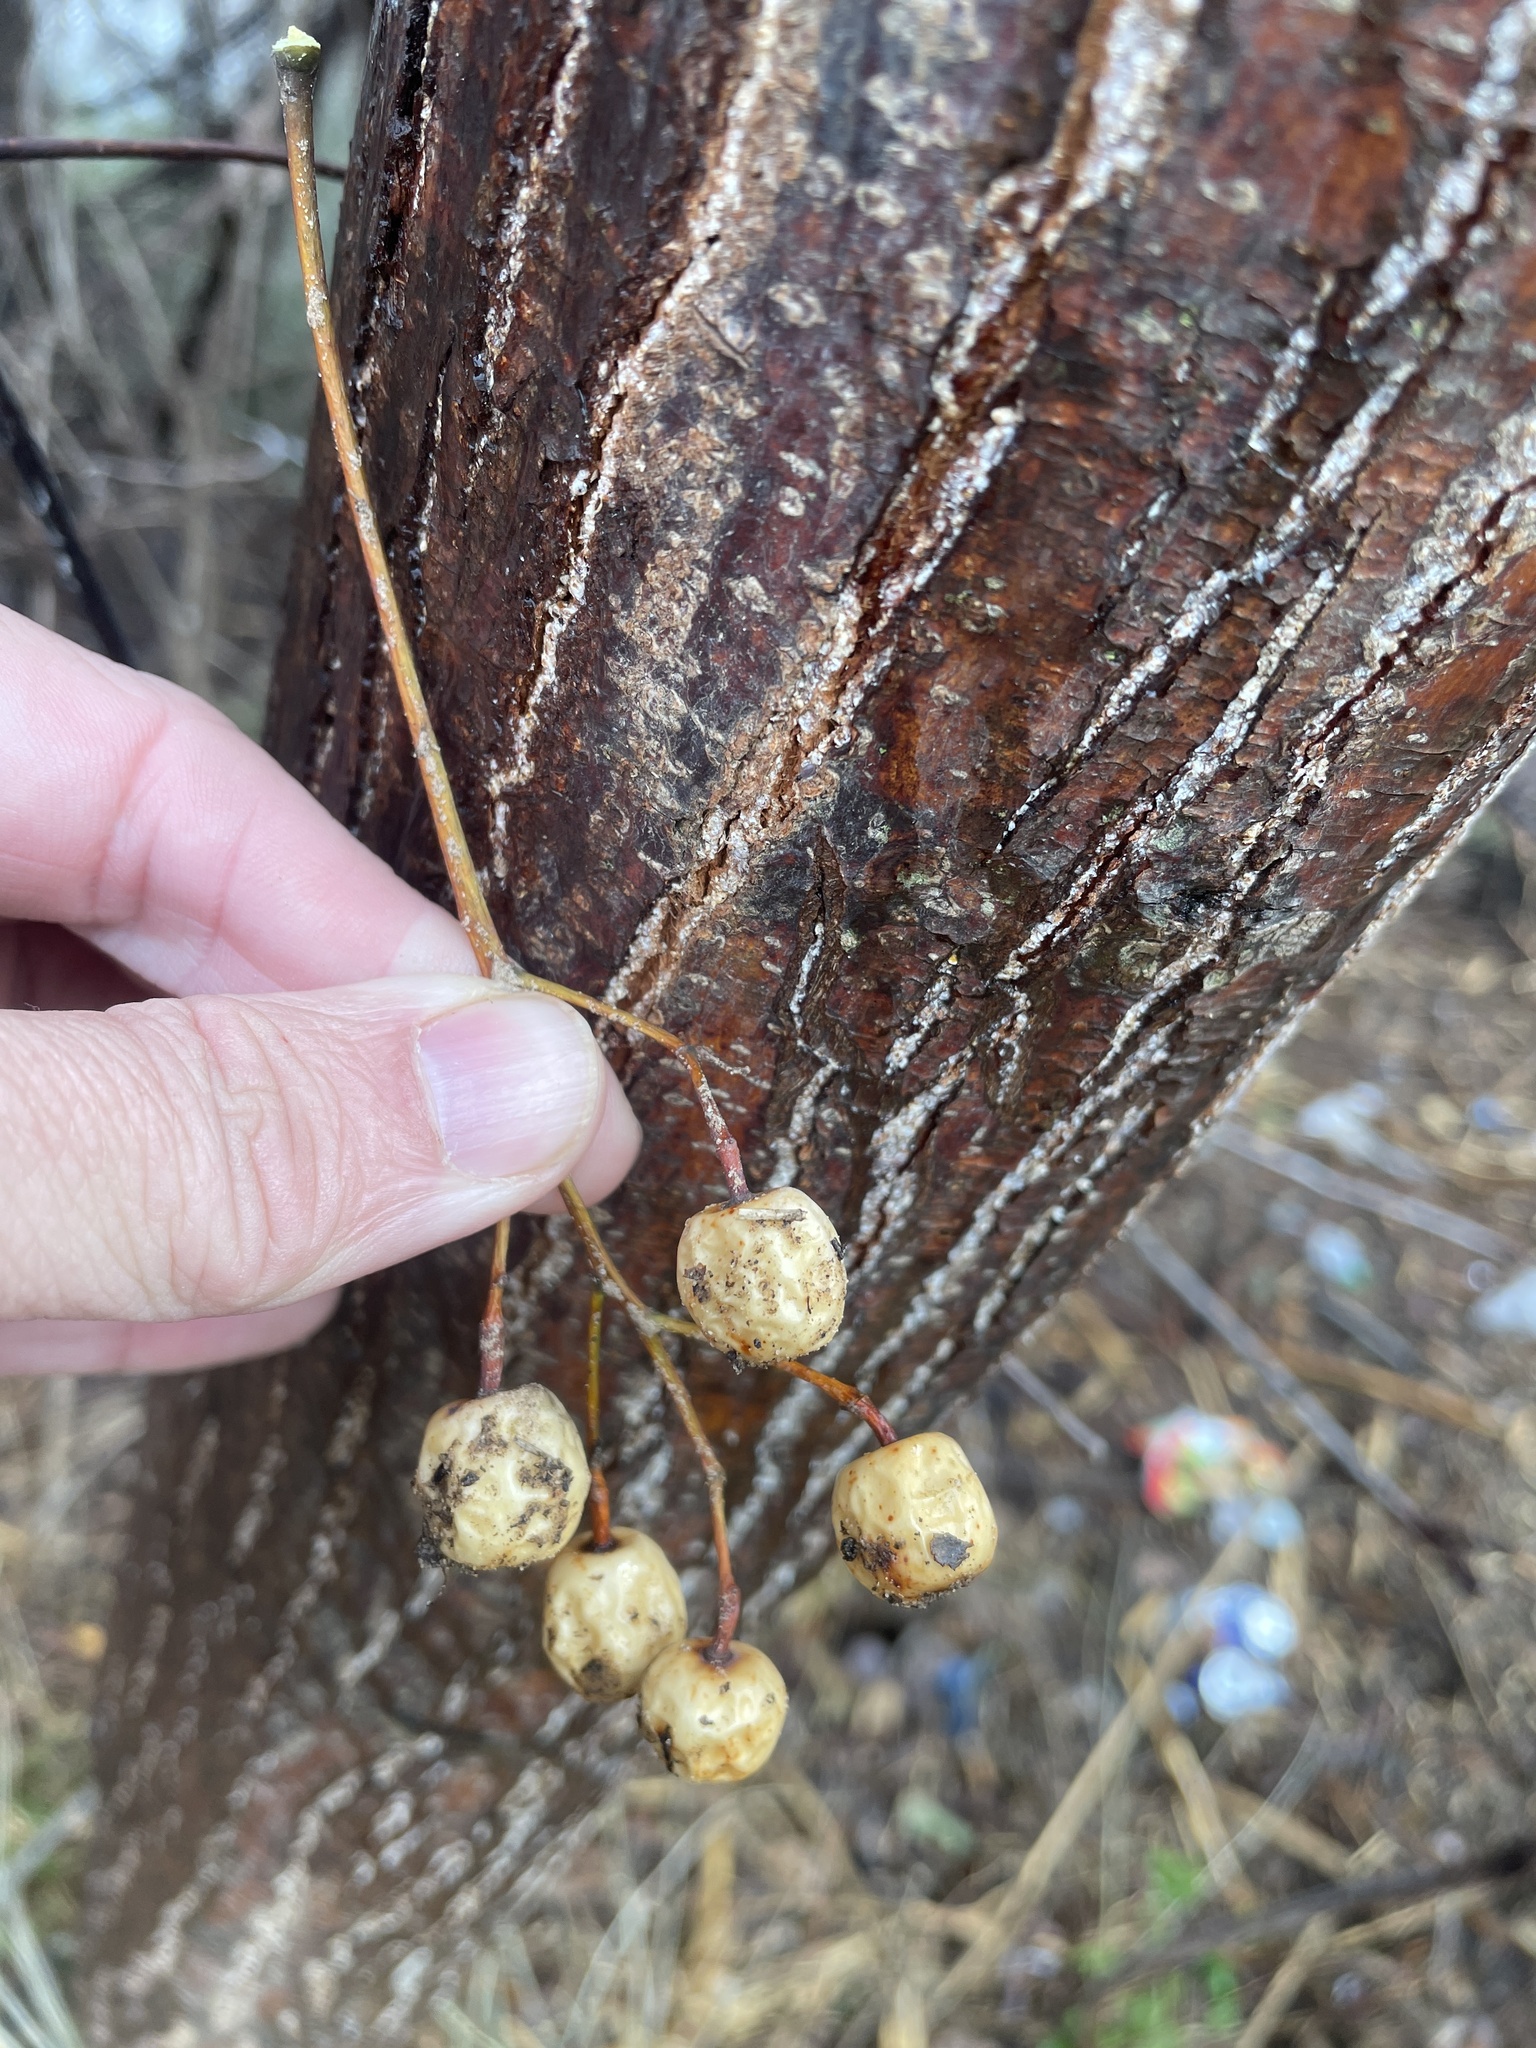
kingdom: Plantae
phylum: Tracheophyta
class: Magnoliopsida
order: Sapindales
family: Meliaceae
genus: Melia
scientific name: Melia azedarach
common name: Chinaberrytree
